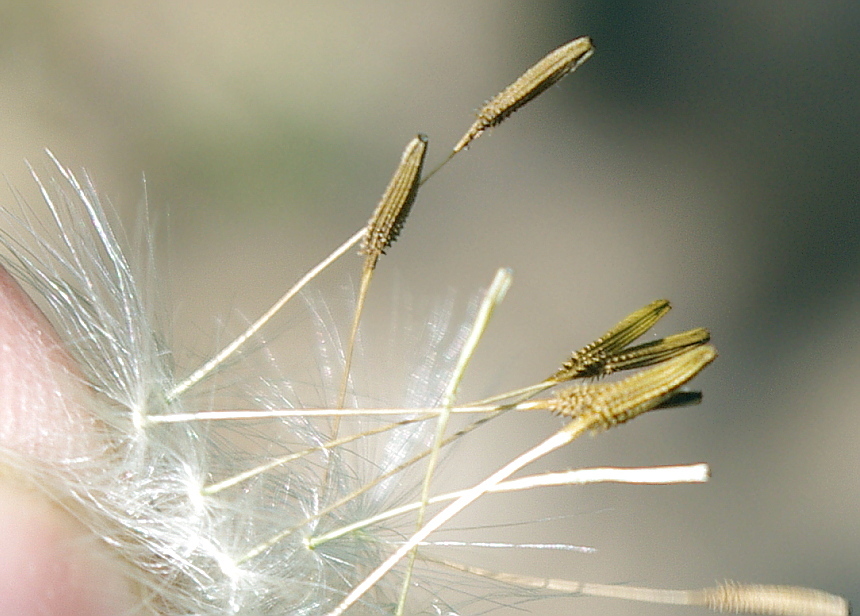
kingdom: Plantae
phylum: Tracheophyta
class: Magnoliopsida
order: Asterales
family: Asteraceae
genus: Taraxacum
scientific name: Taraxacum officinale
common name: Common dandelion
